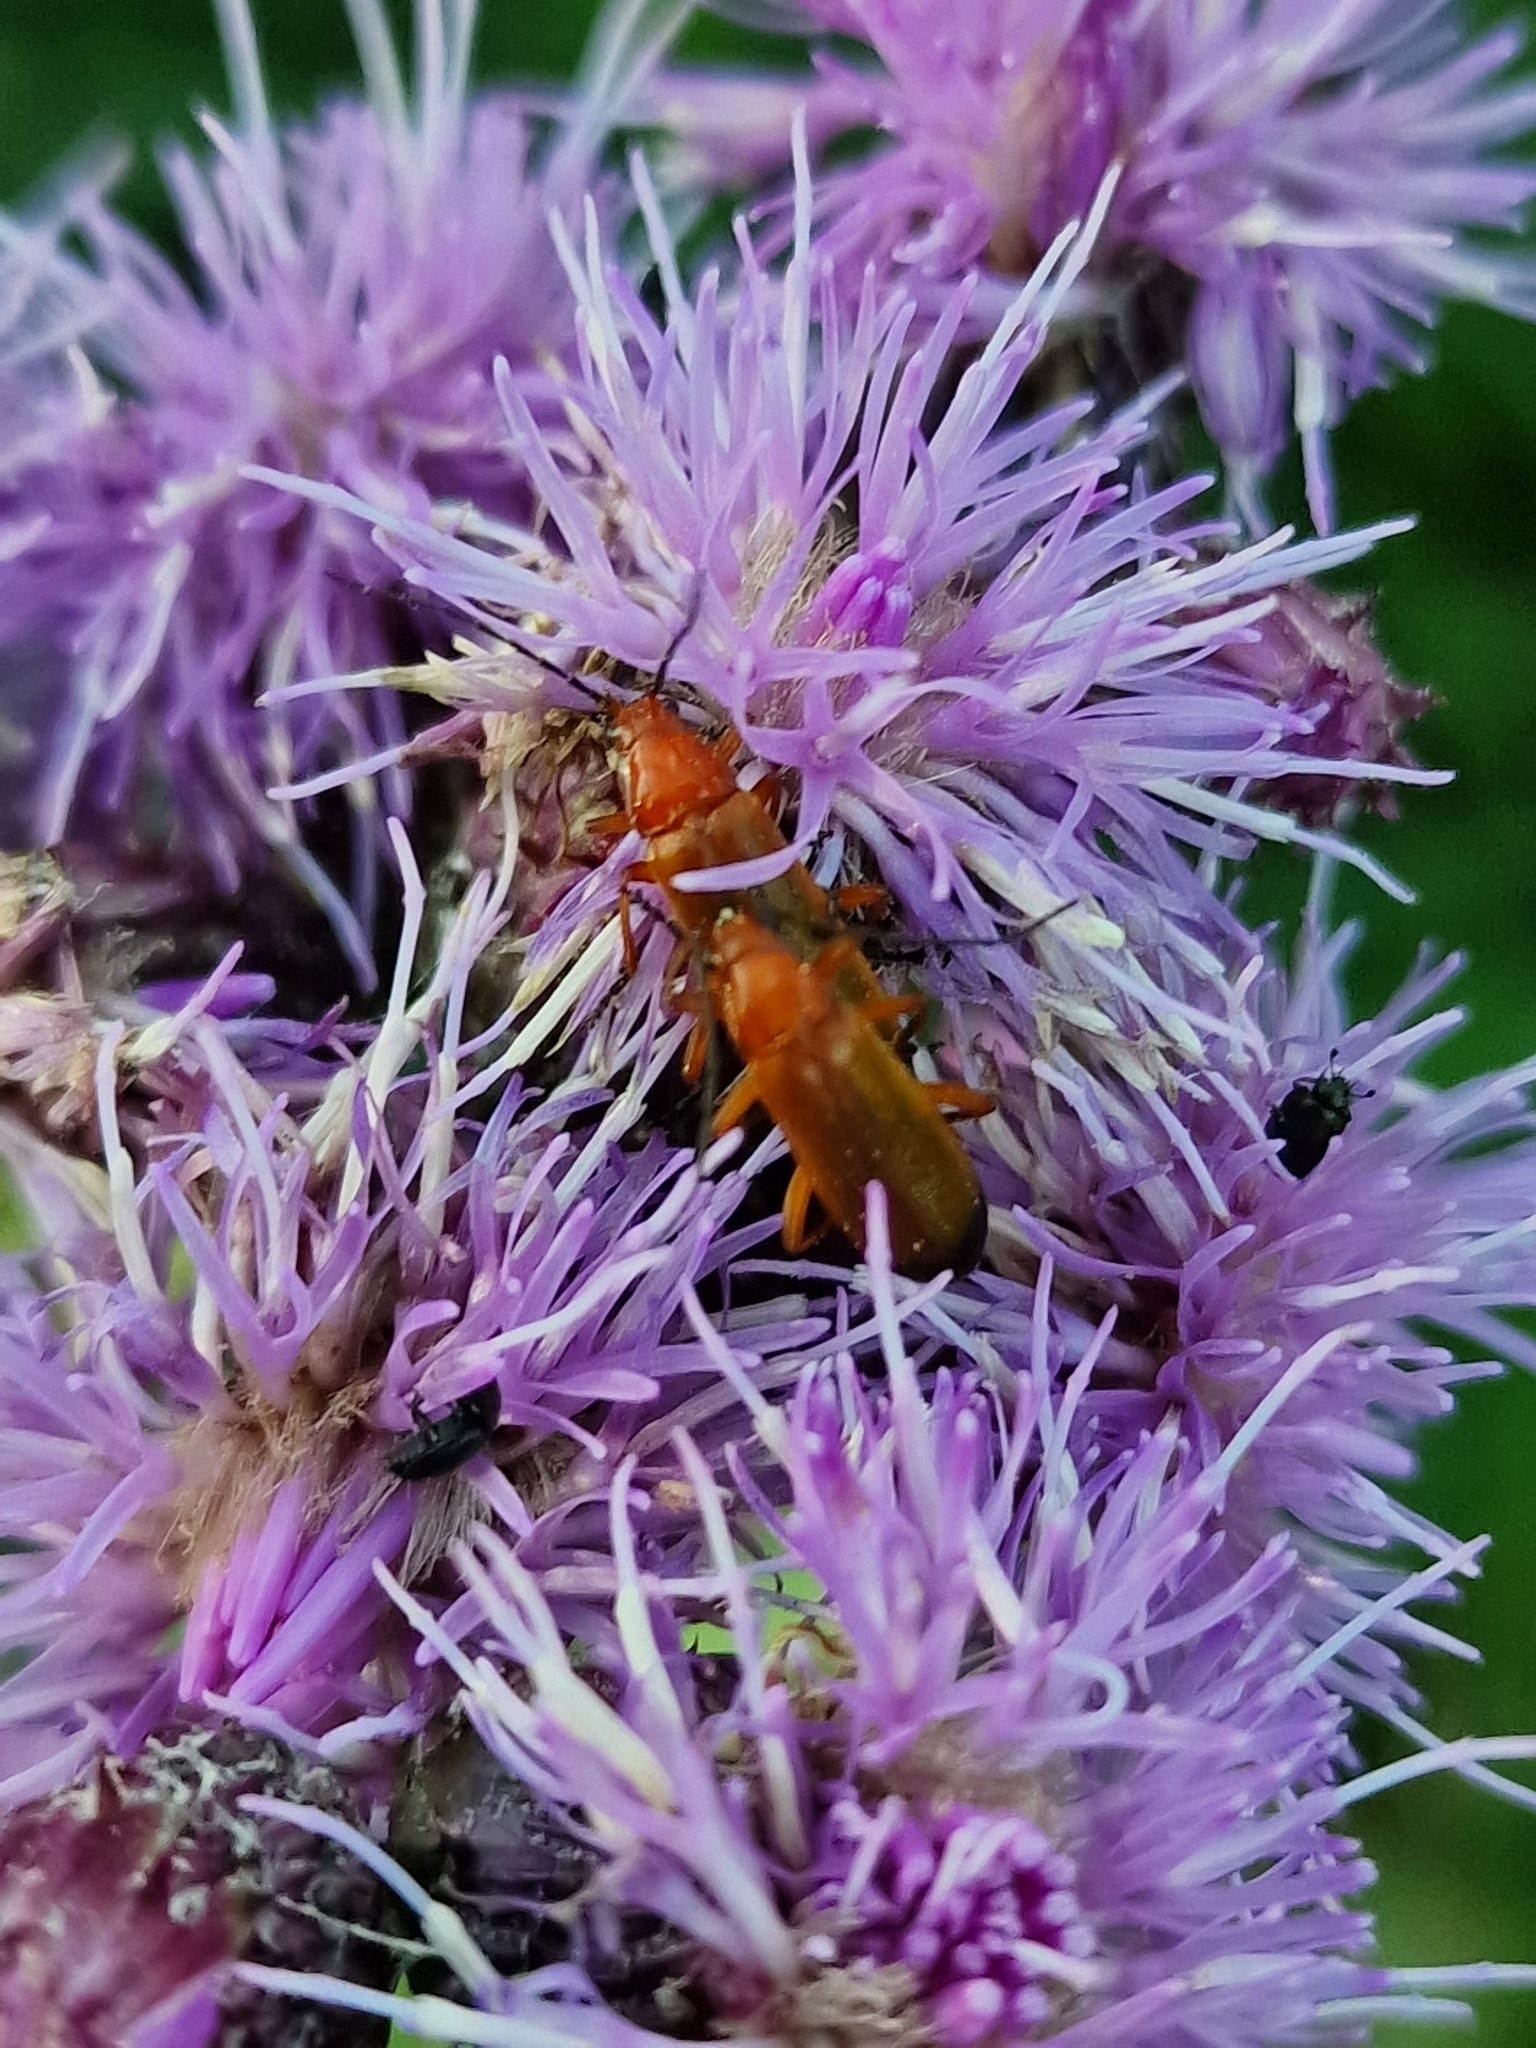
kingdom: Animalia
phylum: Arthropoda
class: Insecta
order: Coleoptera
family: Cantharidae
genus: Rhagonycha
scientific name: Rhagonycha fulva
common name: Common red soldier beetle
